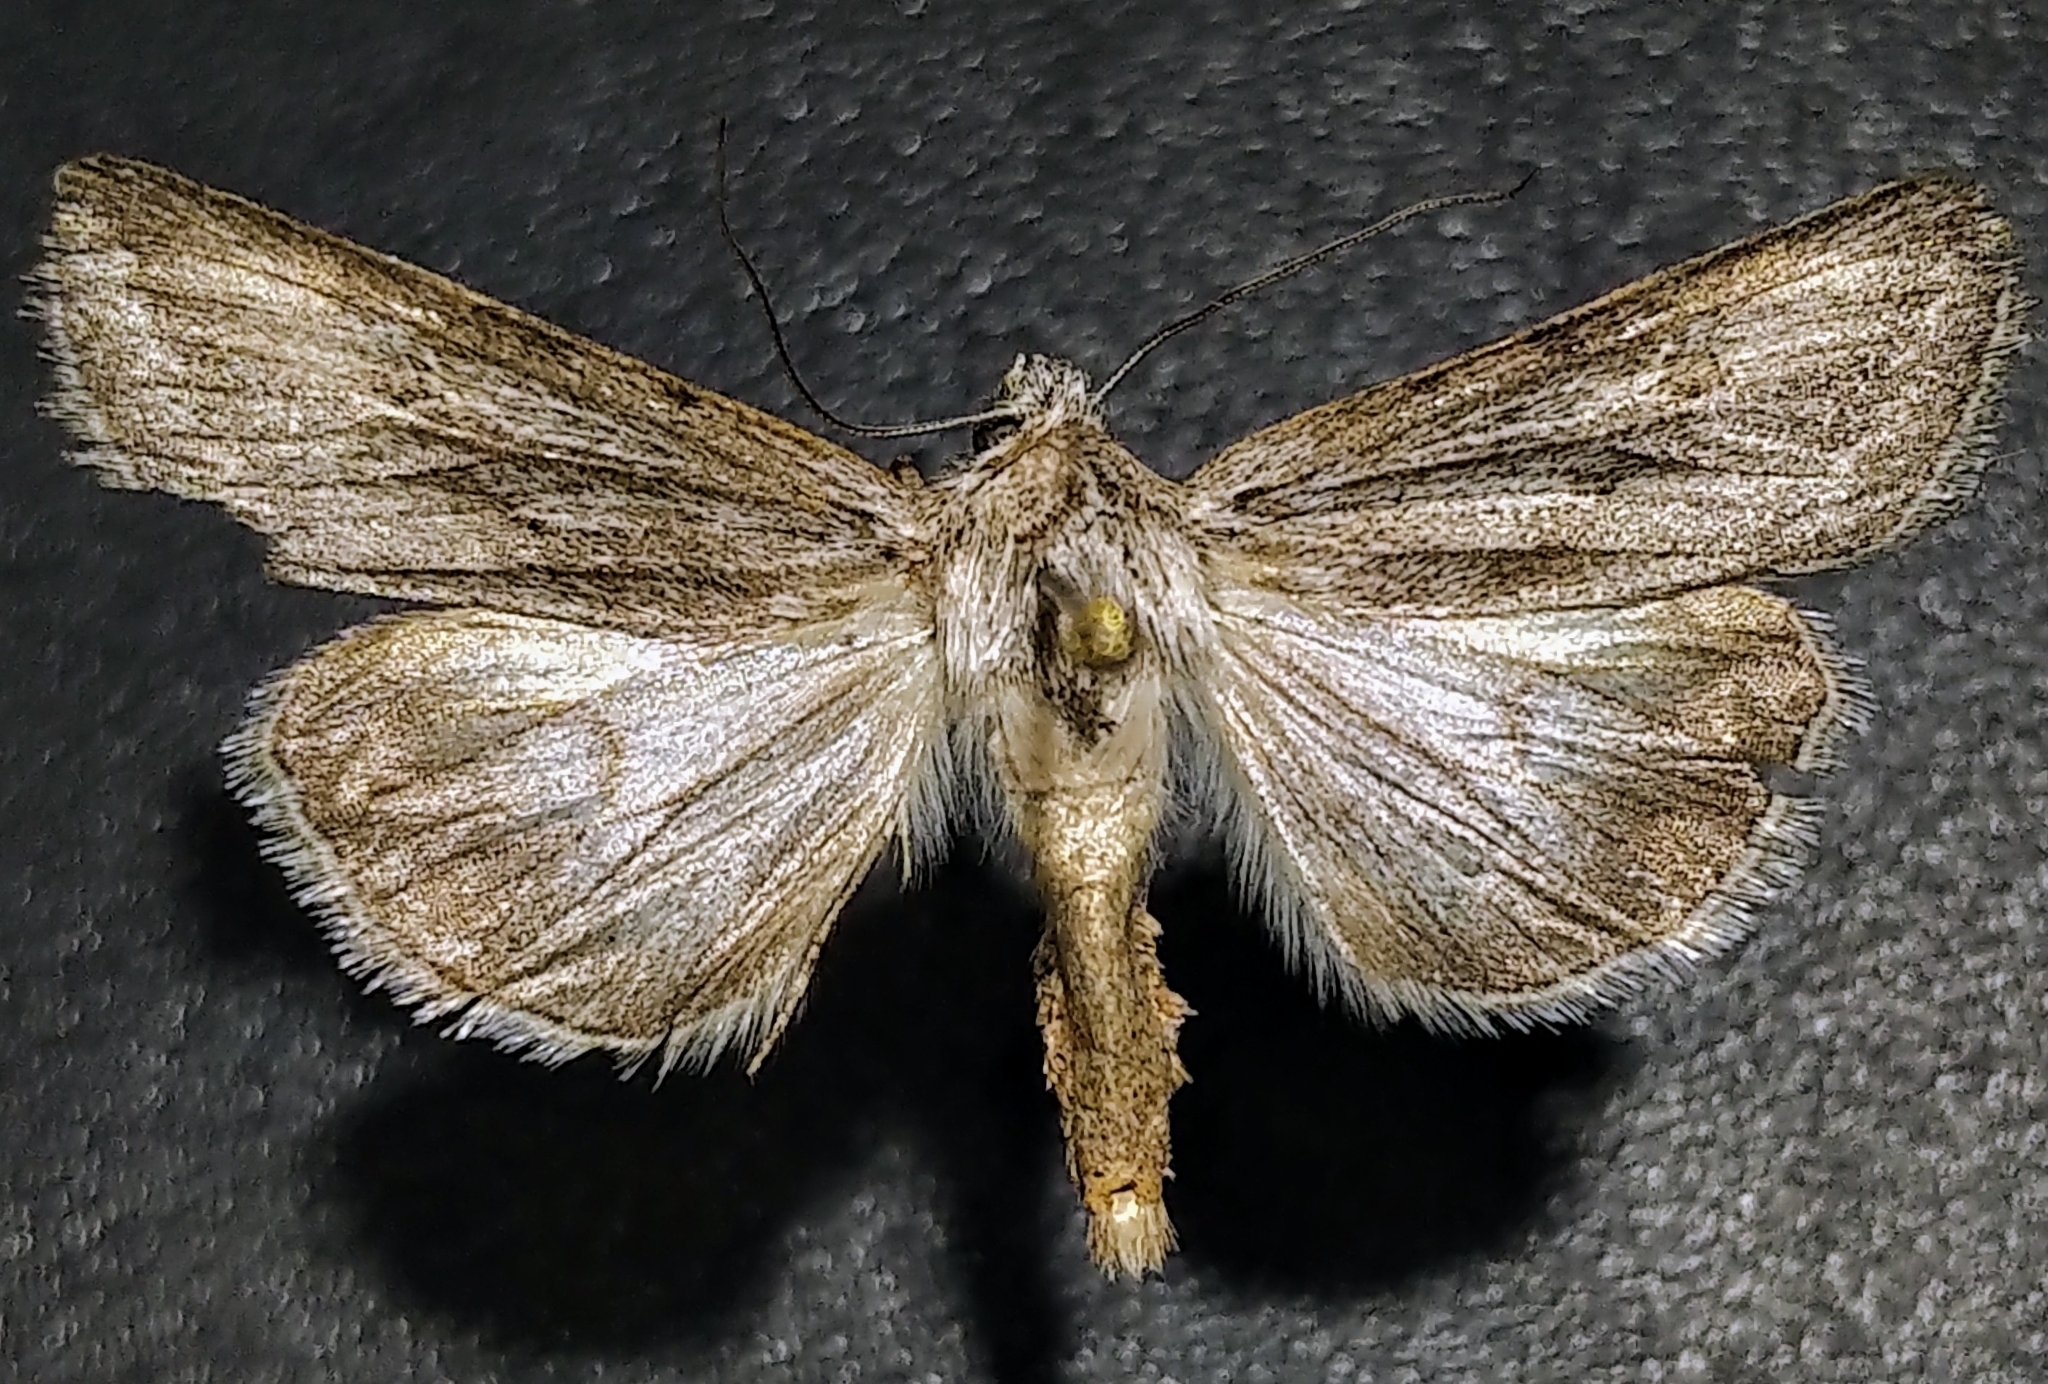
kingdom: Animalia
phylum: Arthropoda
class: Insecta
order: Lepidoptera
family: Noctuidae
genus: Sympistis
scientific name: Sympistis cibalis
